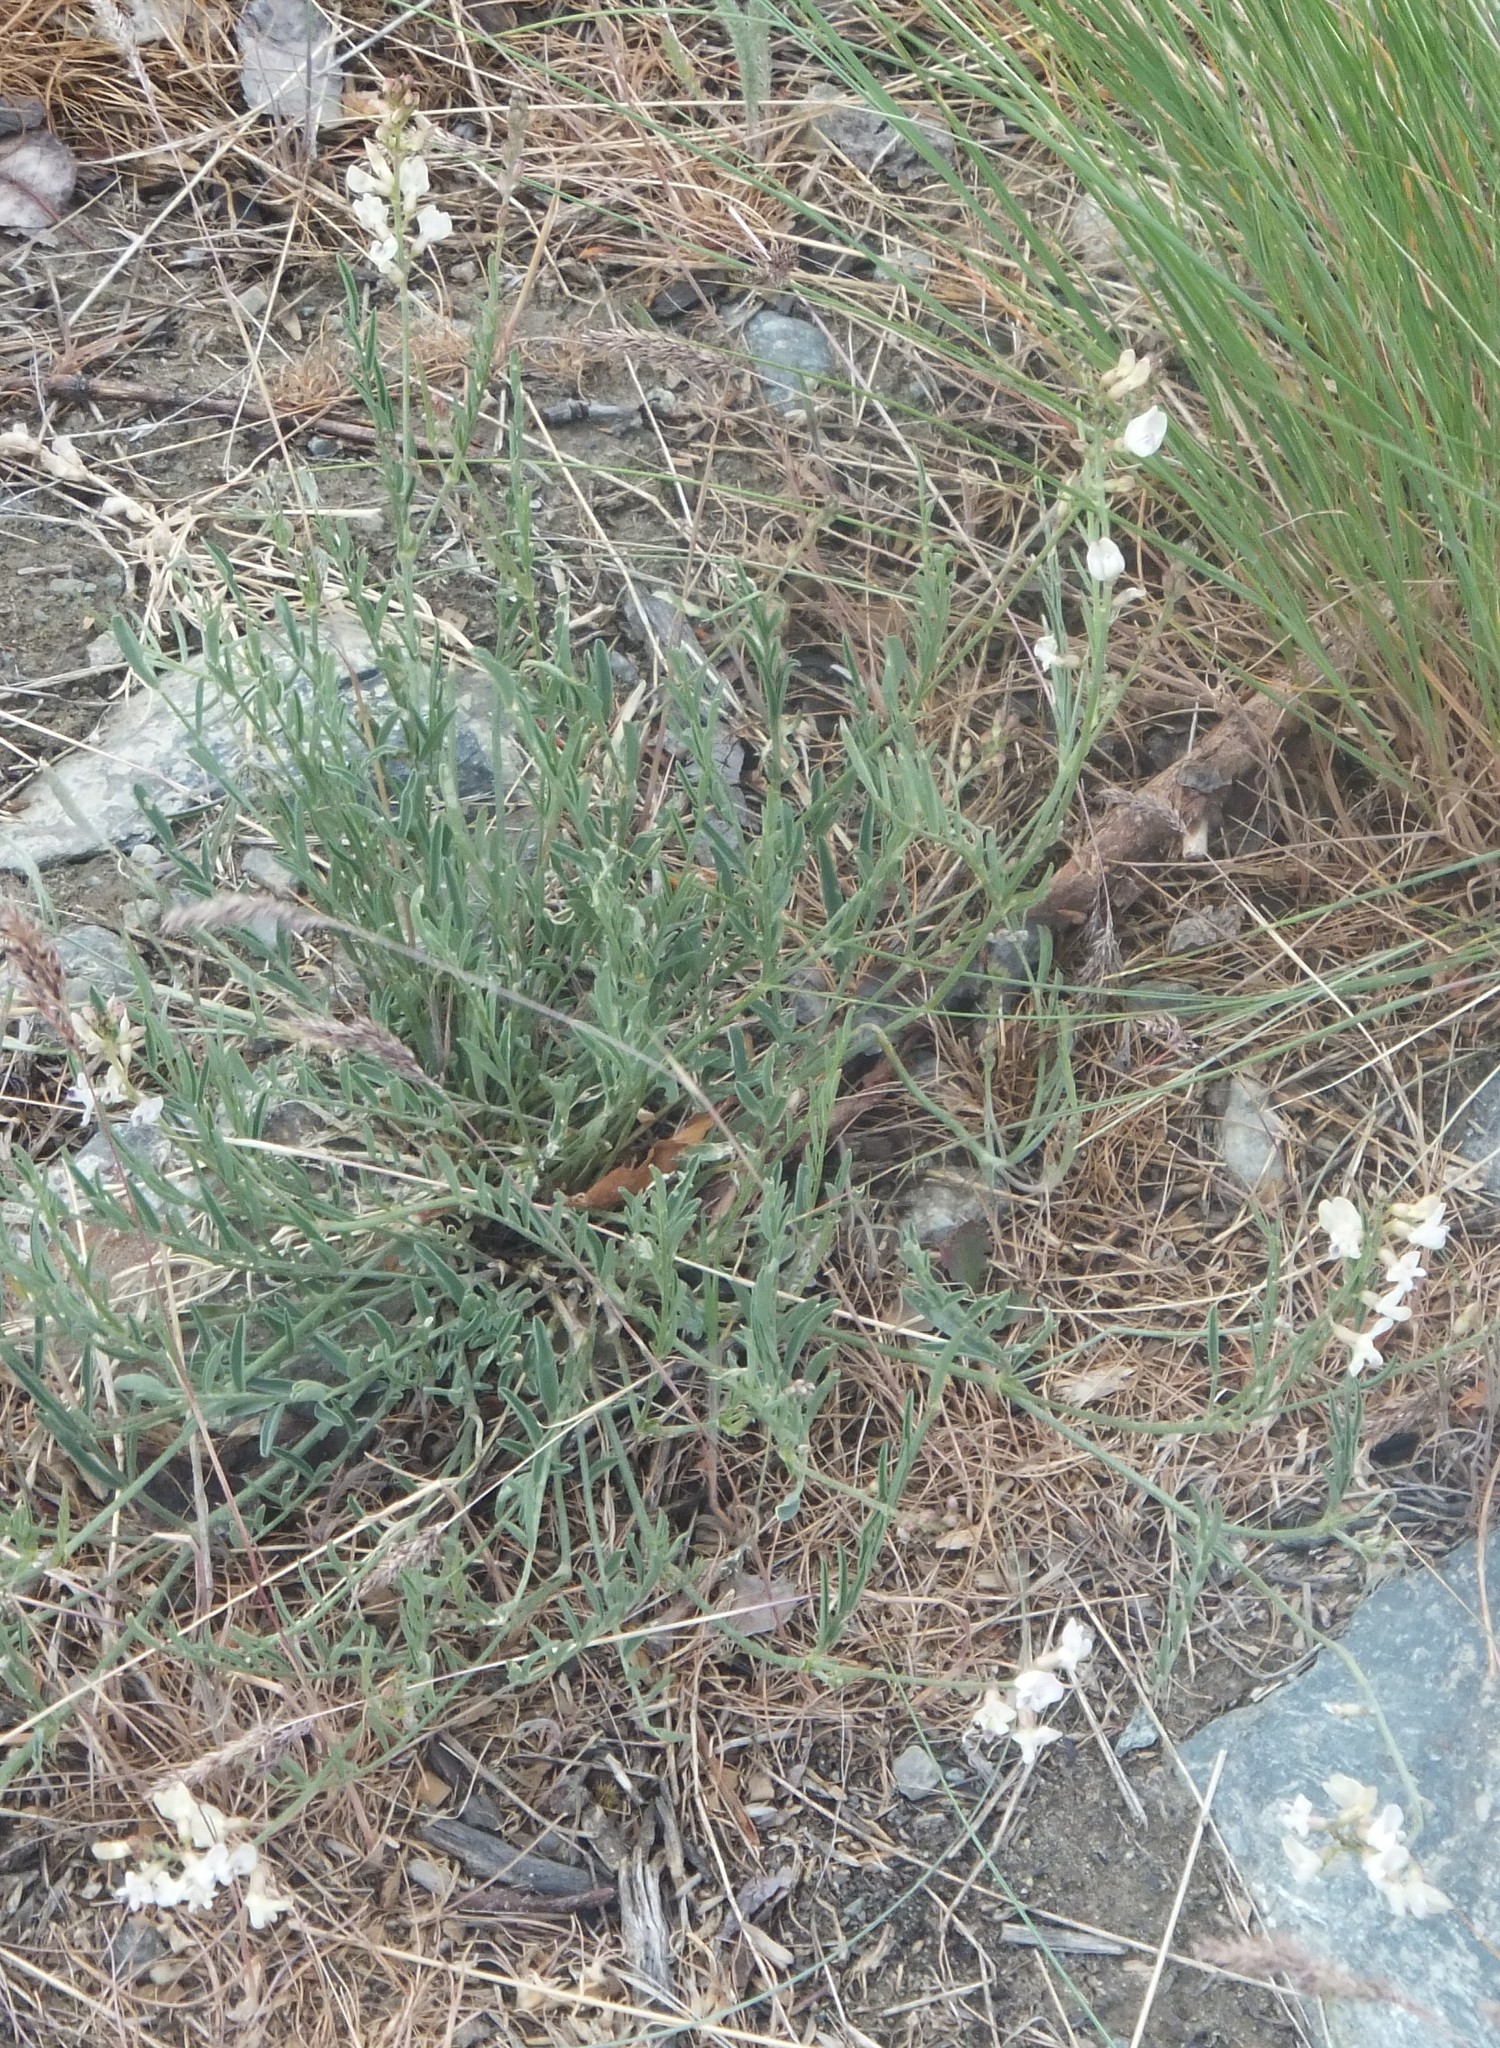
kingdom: Plantae
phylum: Tracheophyta
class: Magnoliopsida
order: Fabales
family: Fabaceae
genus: Astragalus
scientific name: Astragalus miser
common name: Timber milkvetch
